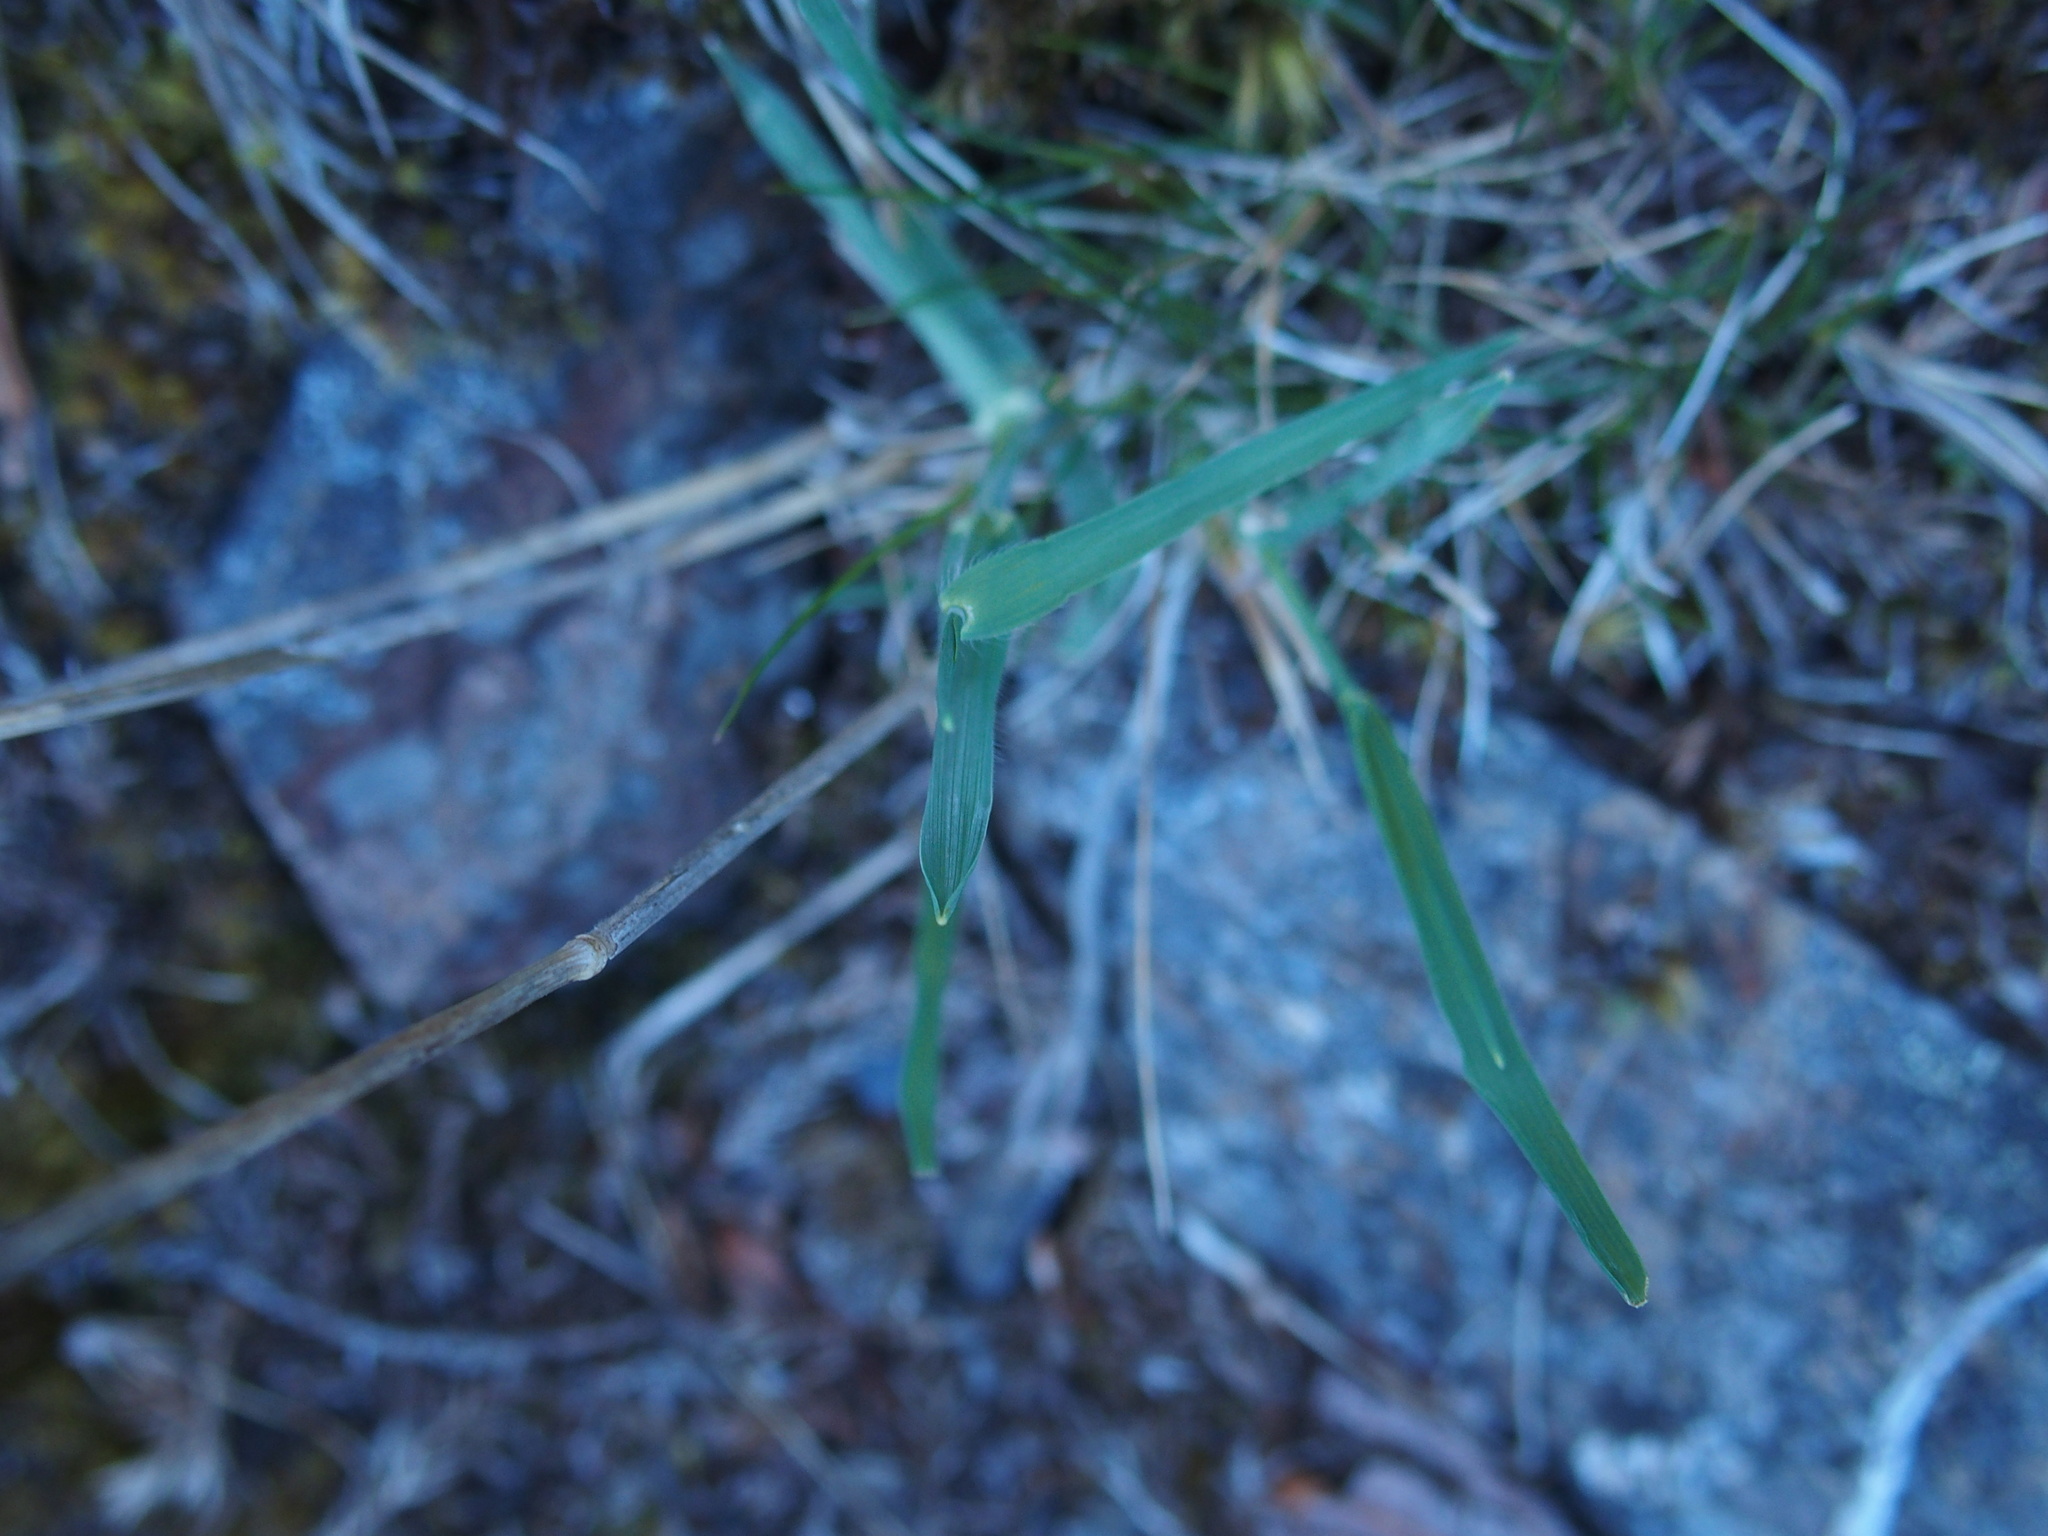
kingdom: Plantae
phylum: Tracheophyta
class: Liliopsida
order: Poales
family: Poaceae
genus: Koeleria
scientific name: Koeleria spicata
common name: Mountain trisetum
